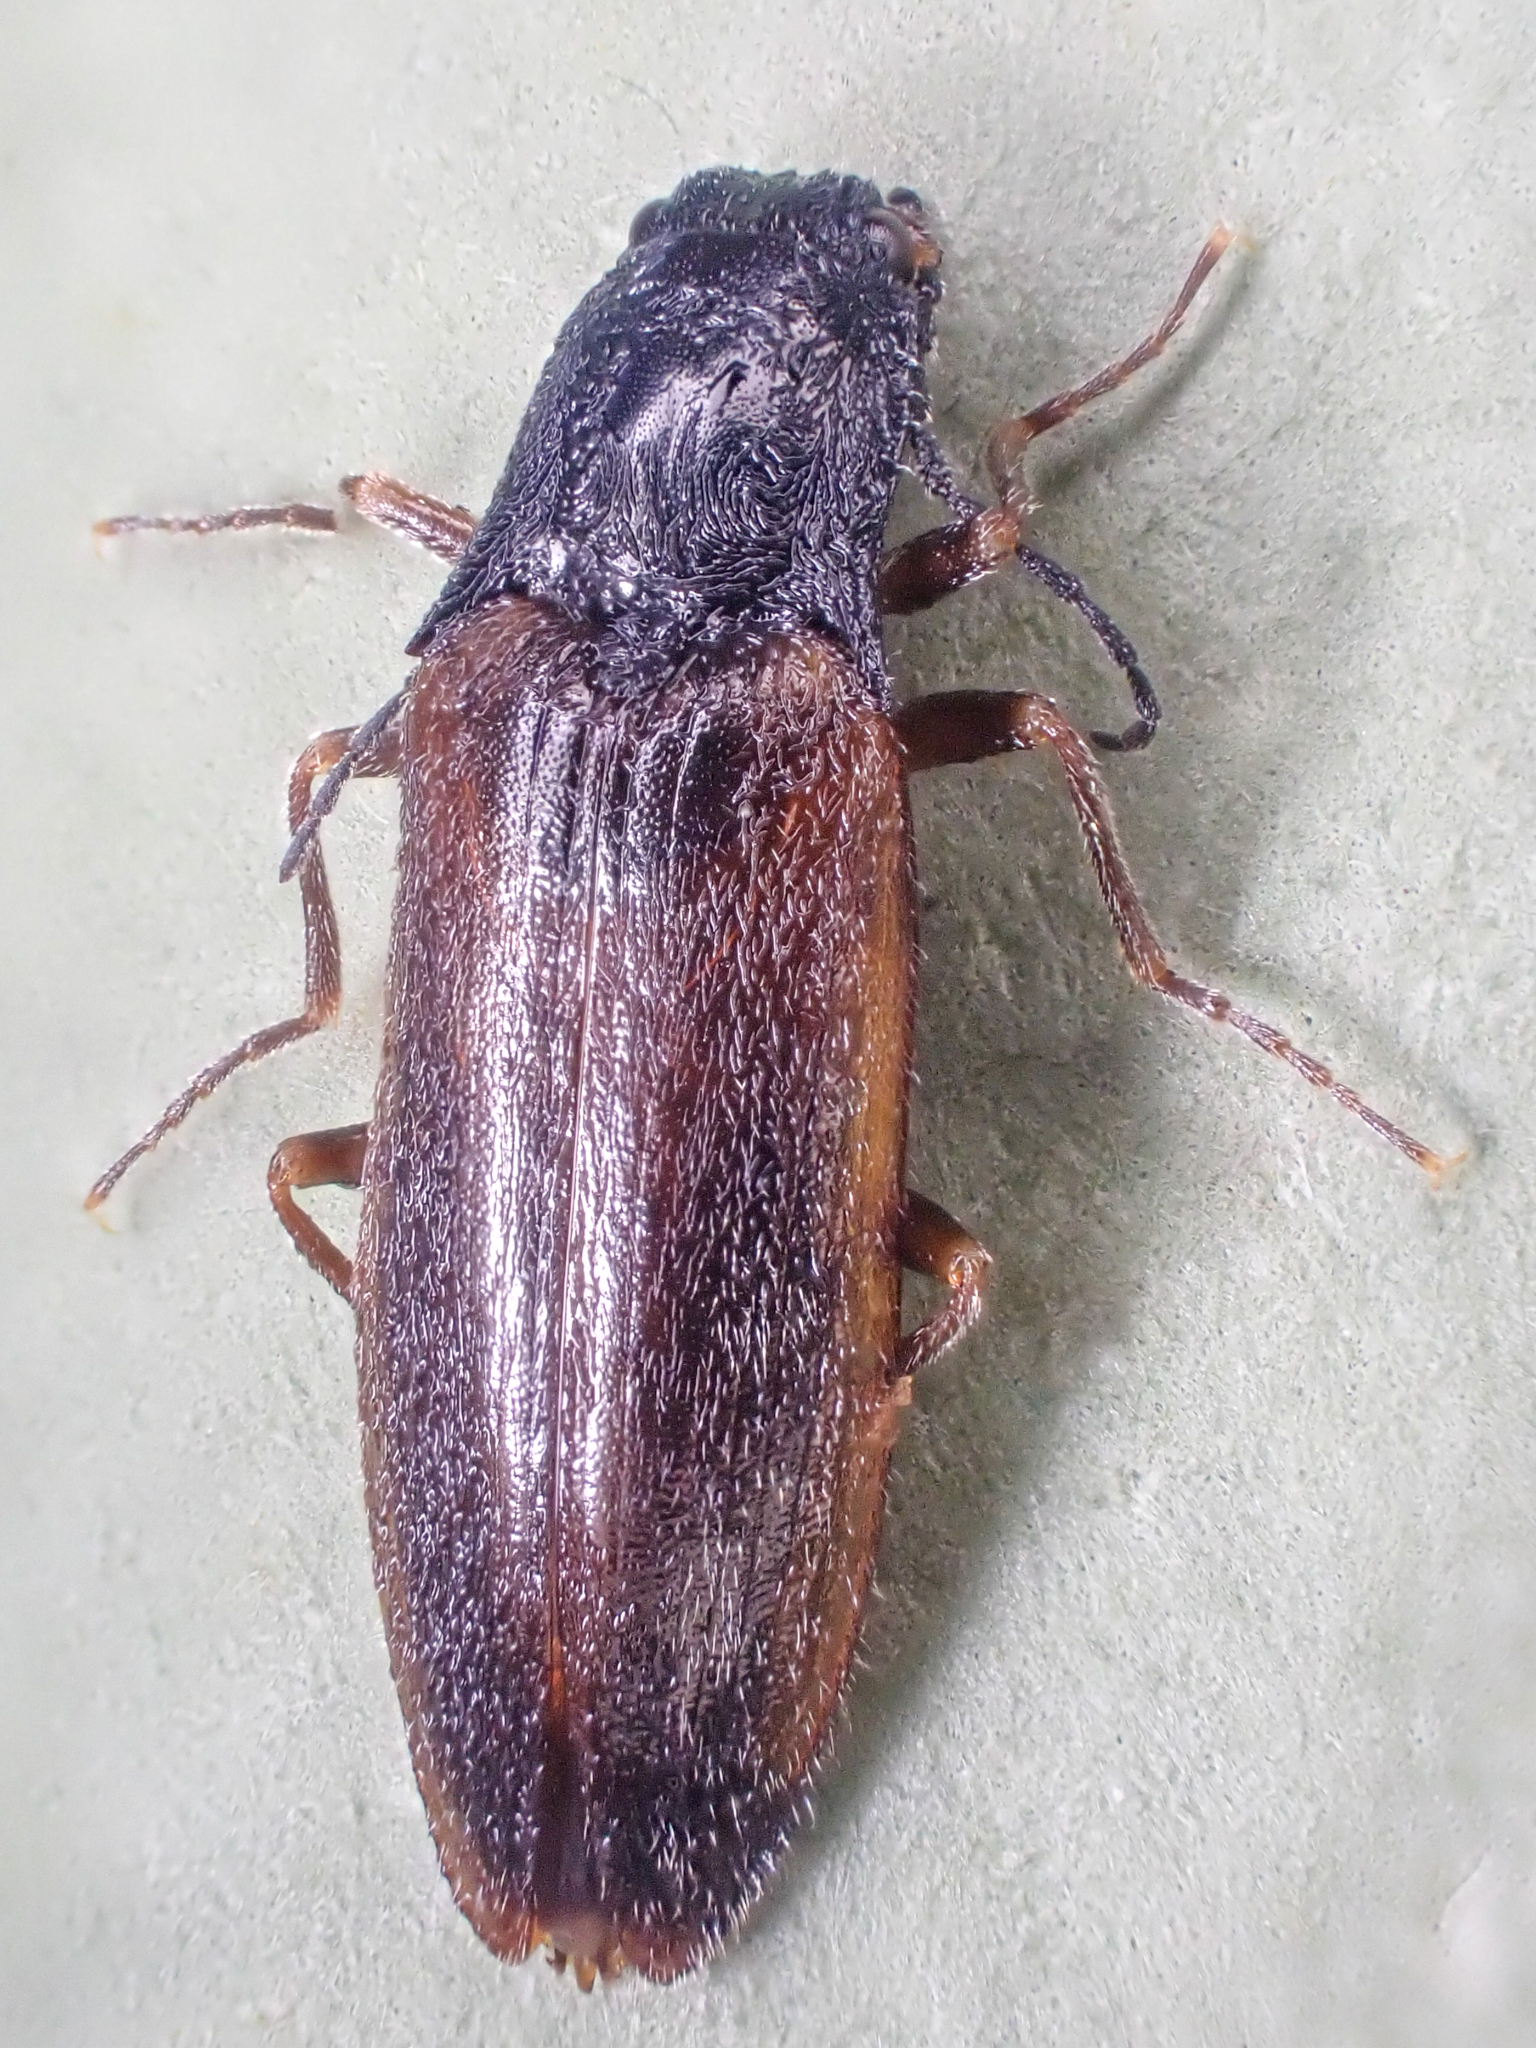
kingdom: Animalia
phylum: Arthropoda
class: Insecta
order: Coleoptera
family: Elateridae
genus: Acteniceromorphus
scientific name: Acteniceromorphus
